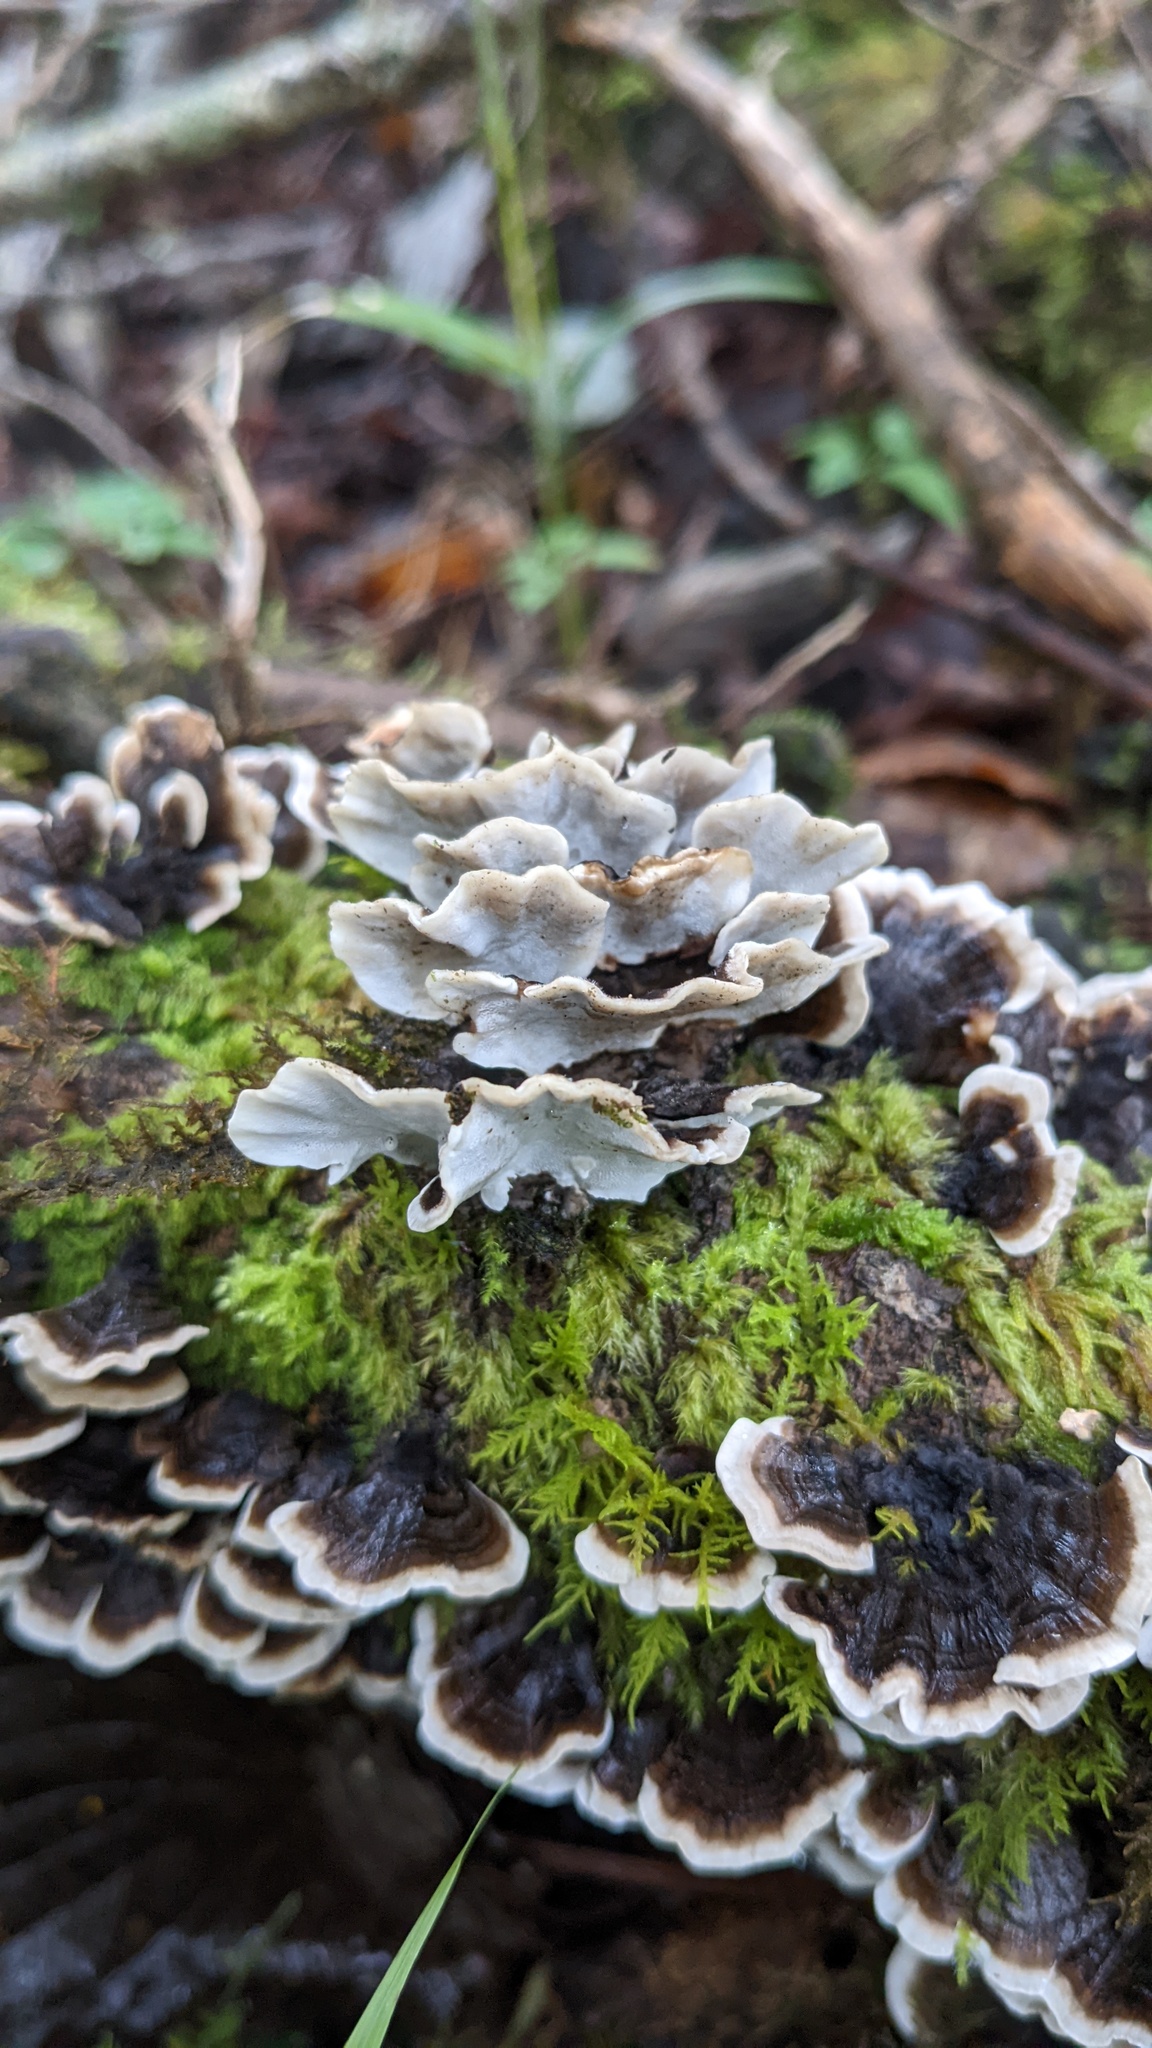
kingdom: Fungi
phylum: Basidiomycota
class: Agaricomycetes
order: Polyporales
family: Polyporaceae
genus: Trametes
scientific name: Trametes versicolor
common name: Turkeytail
